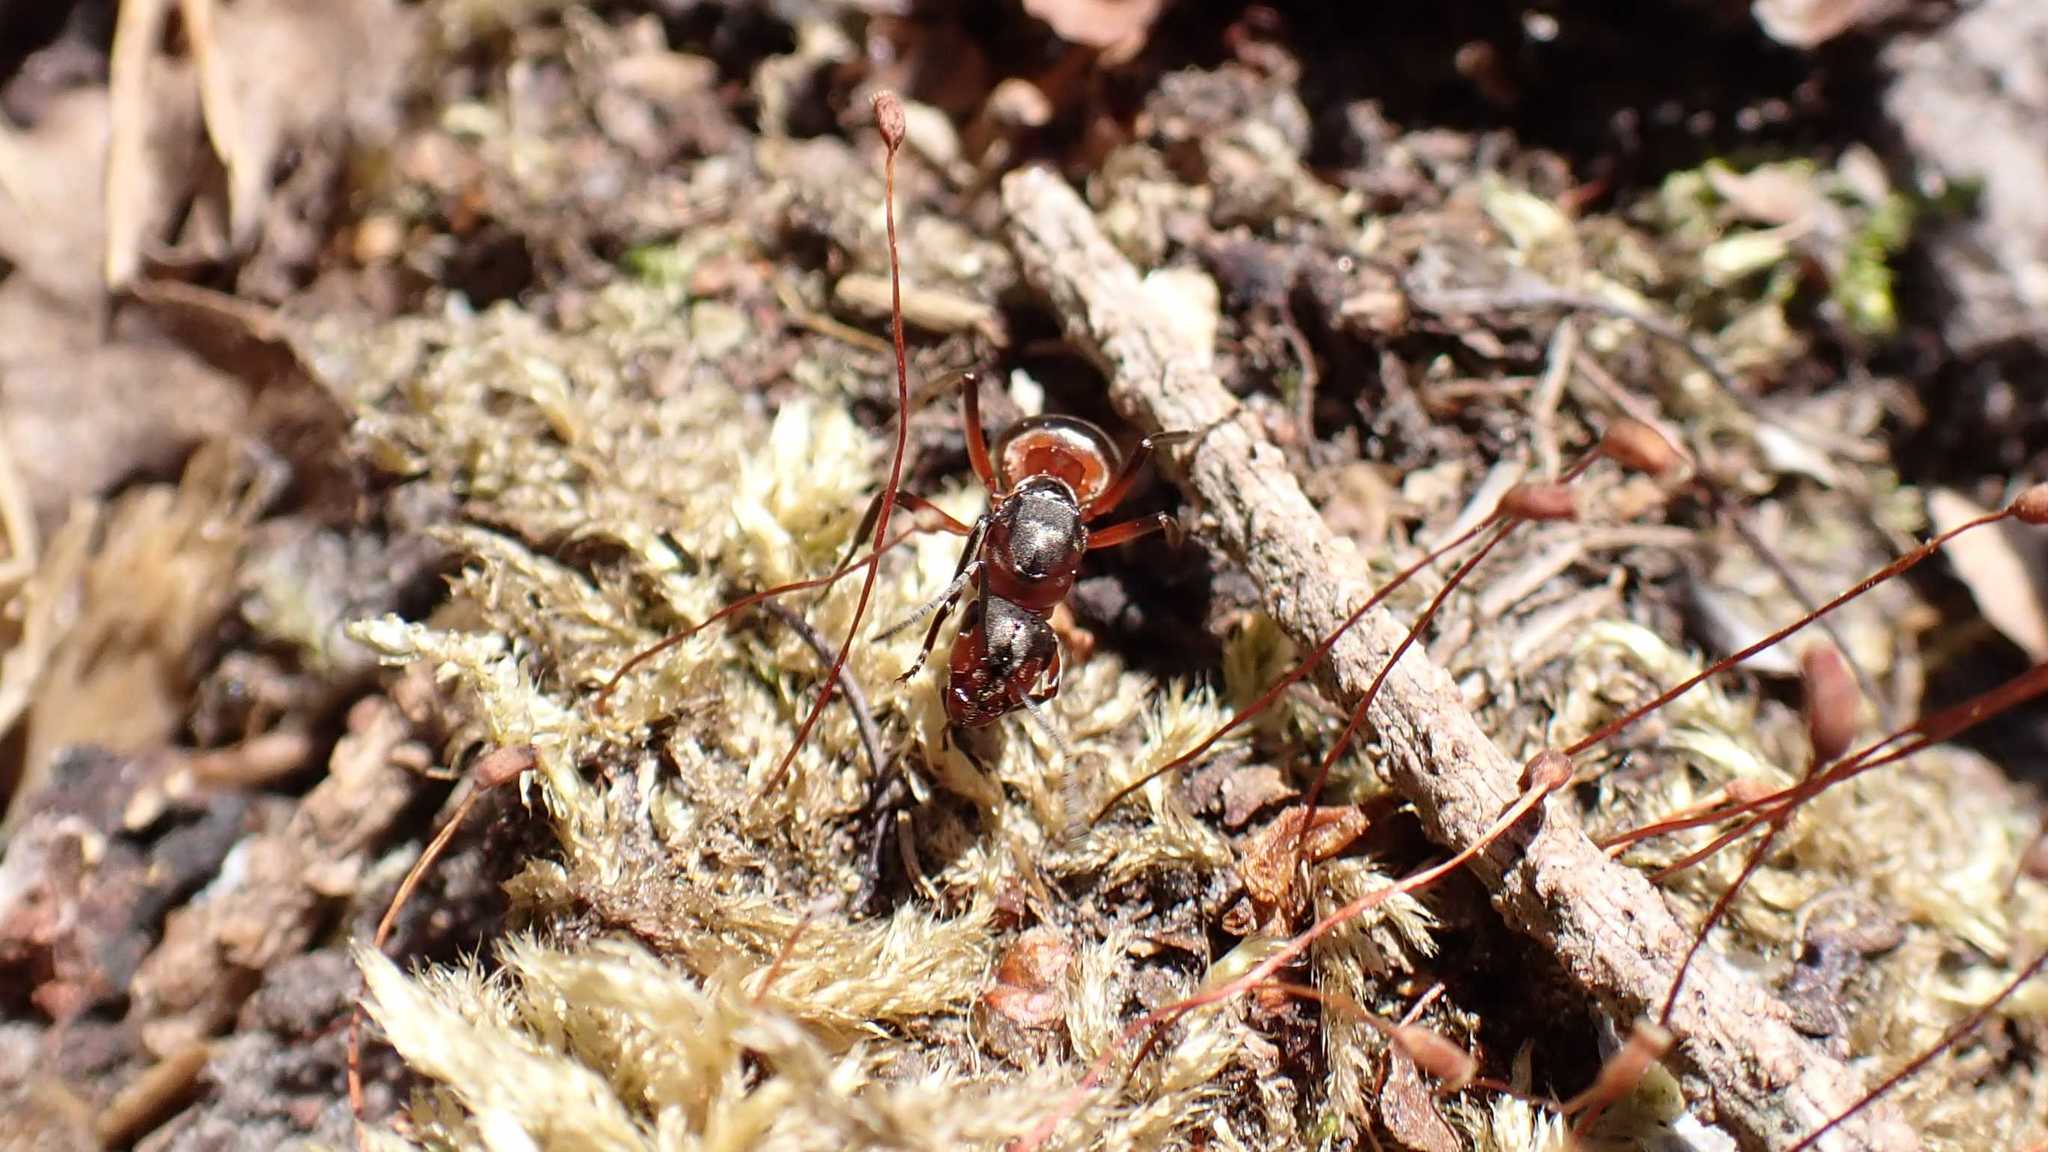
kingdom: Animalia
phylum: Arthropoda
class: Insecta
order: Hymenoptera
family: Formicidae
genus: Formica
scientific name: Formica
